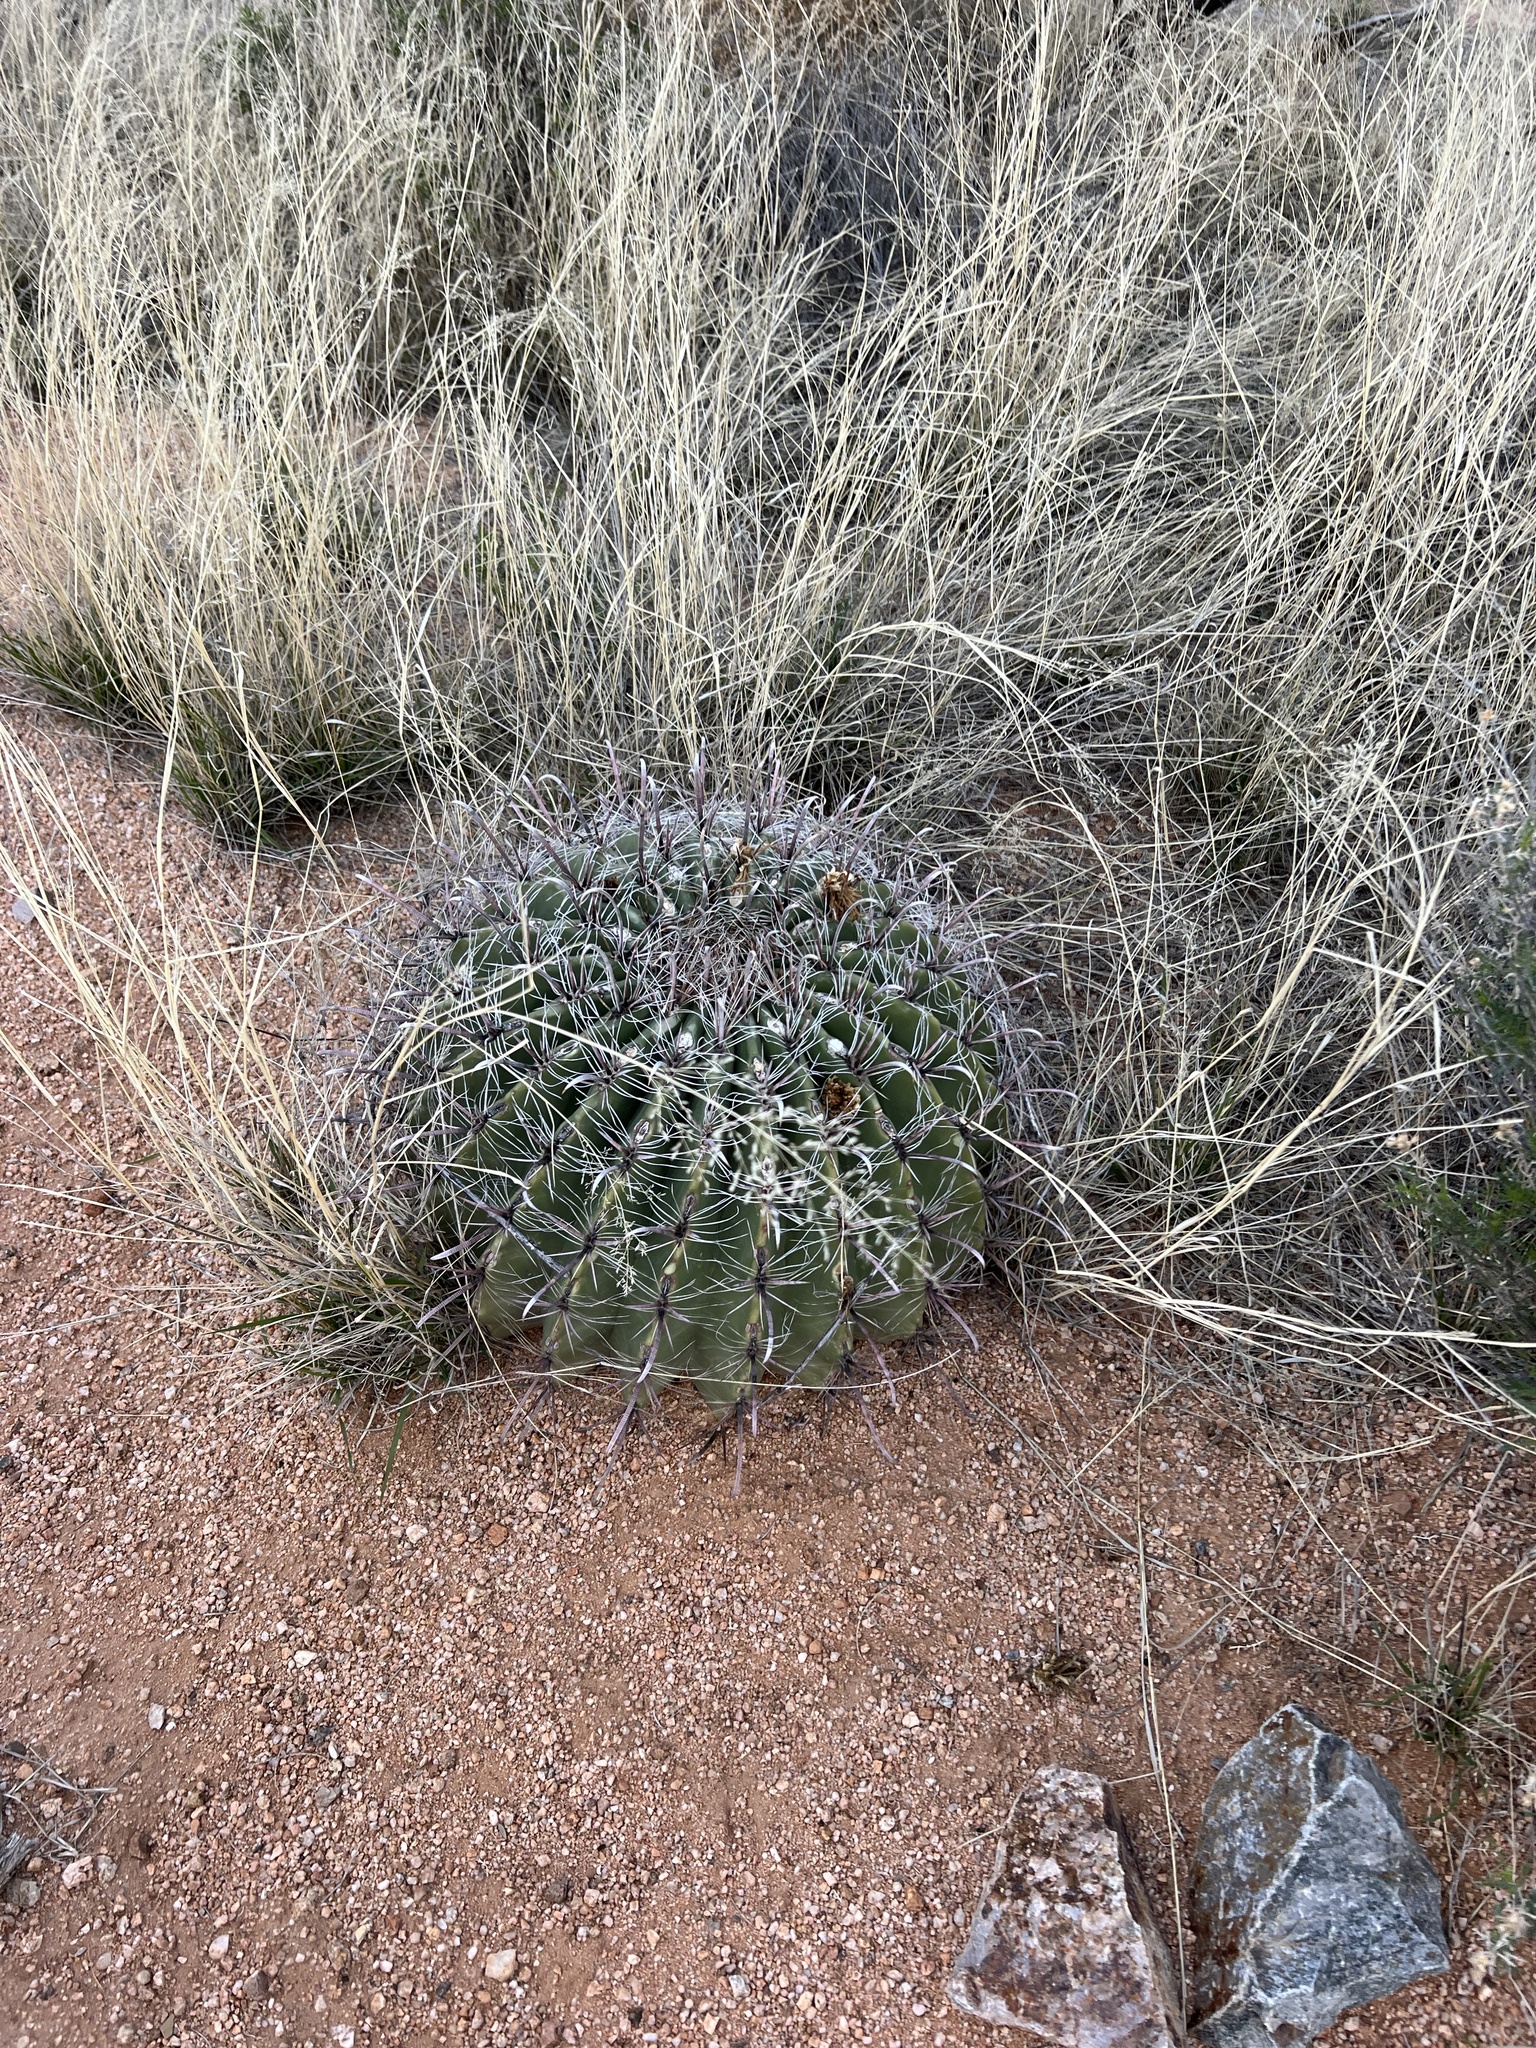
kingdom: Plantae
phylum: Tracheophyta
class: Magnoliopsida
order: Caryophyllales
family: Cactaceae
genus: Ferocactus
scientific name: Ferocactus wislizeni
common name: Candy barrel cactus
